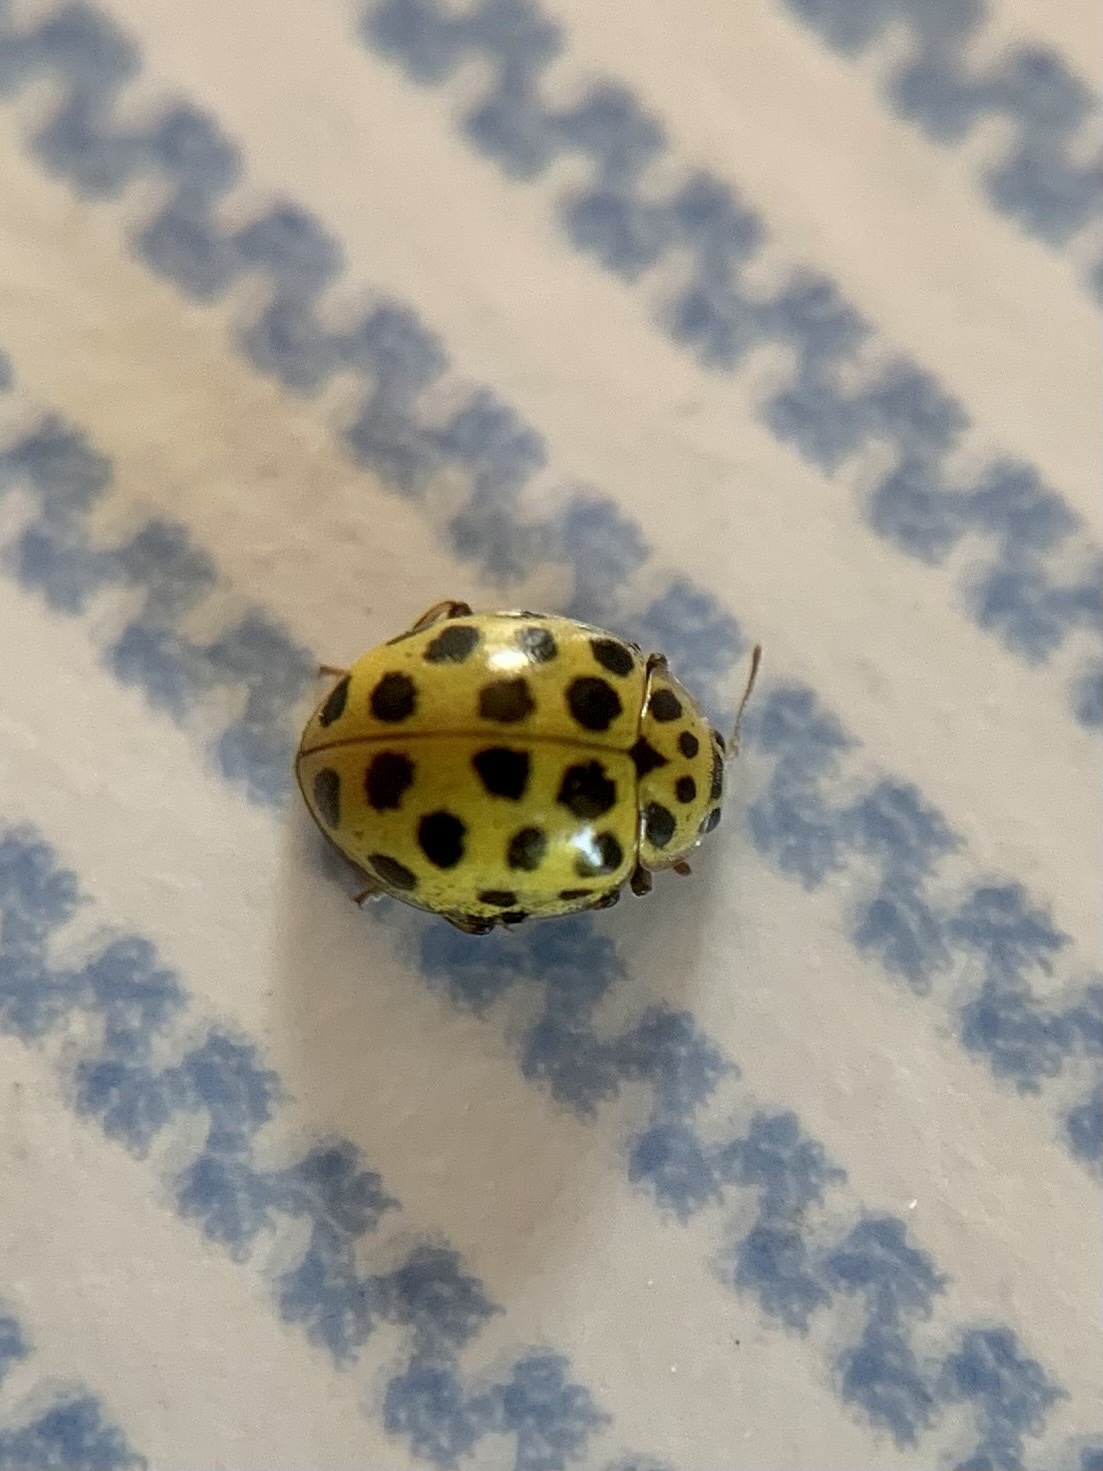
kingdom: Animalia
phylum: Arthropoda
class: Insecta
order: Coleoptera
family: Coccinellidae
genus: Psyllobora
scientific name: Psyllobora vigintiduopunctata
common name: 22-spot ladybird
